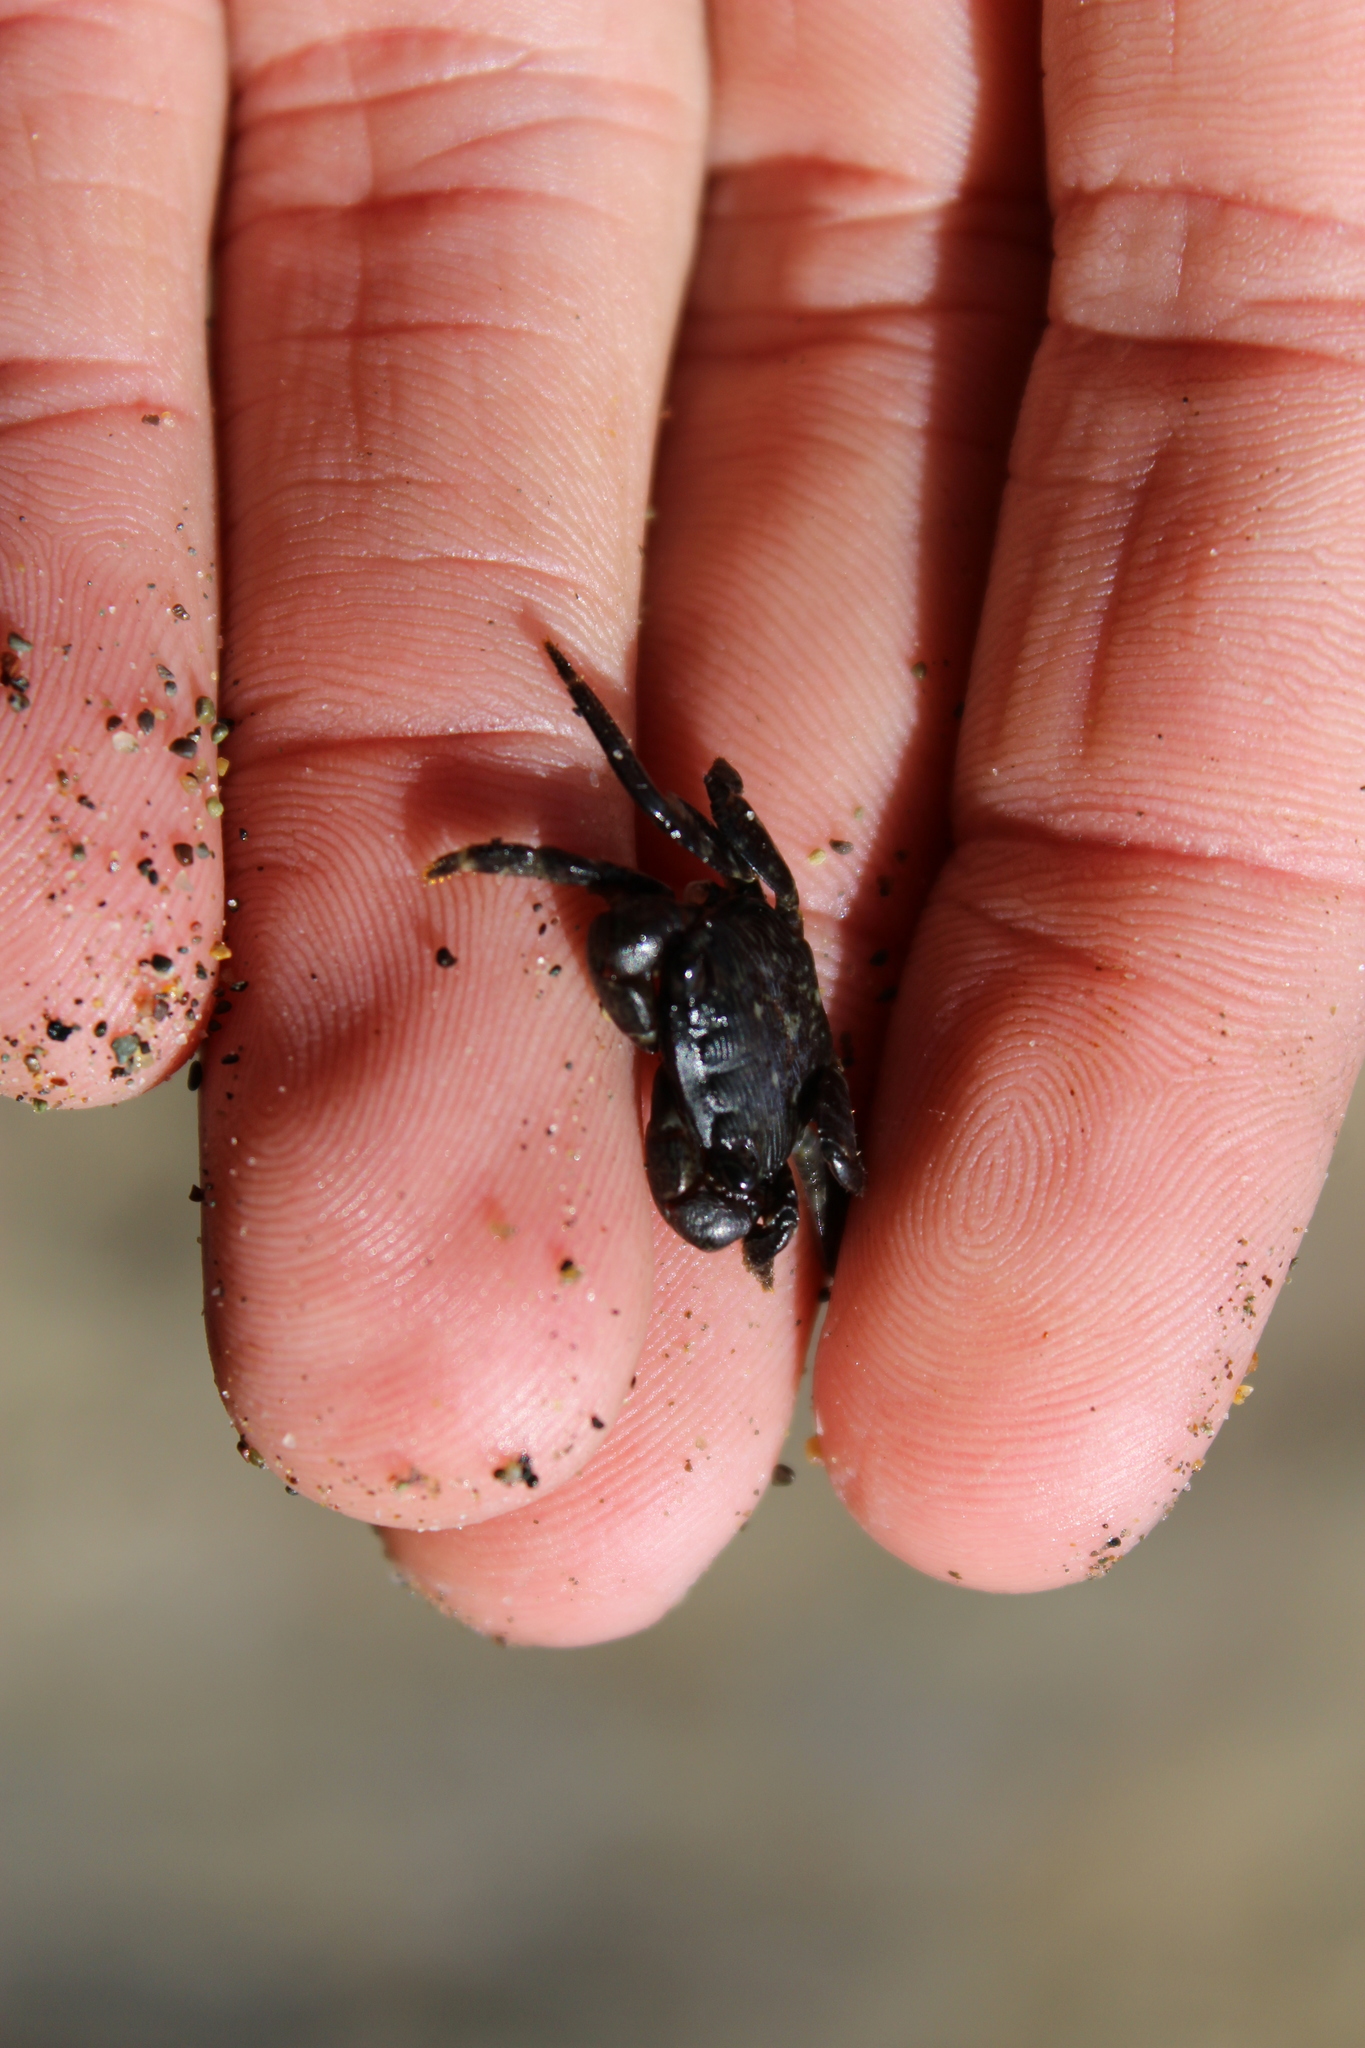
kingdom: Animalia
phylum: Arthropoda
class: Malacostraca
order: Decapoda
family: Grapsidae
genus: Pachygrapsus
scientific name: Pachygrapsus crassipes
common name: Striped shore crab
